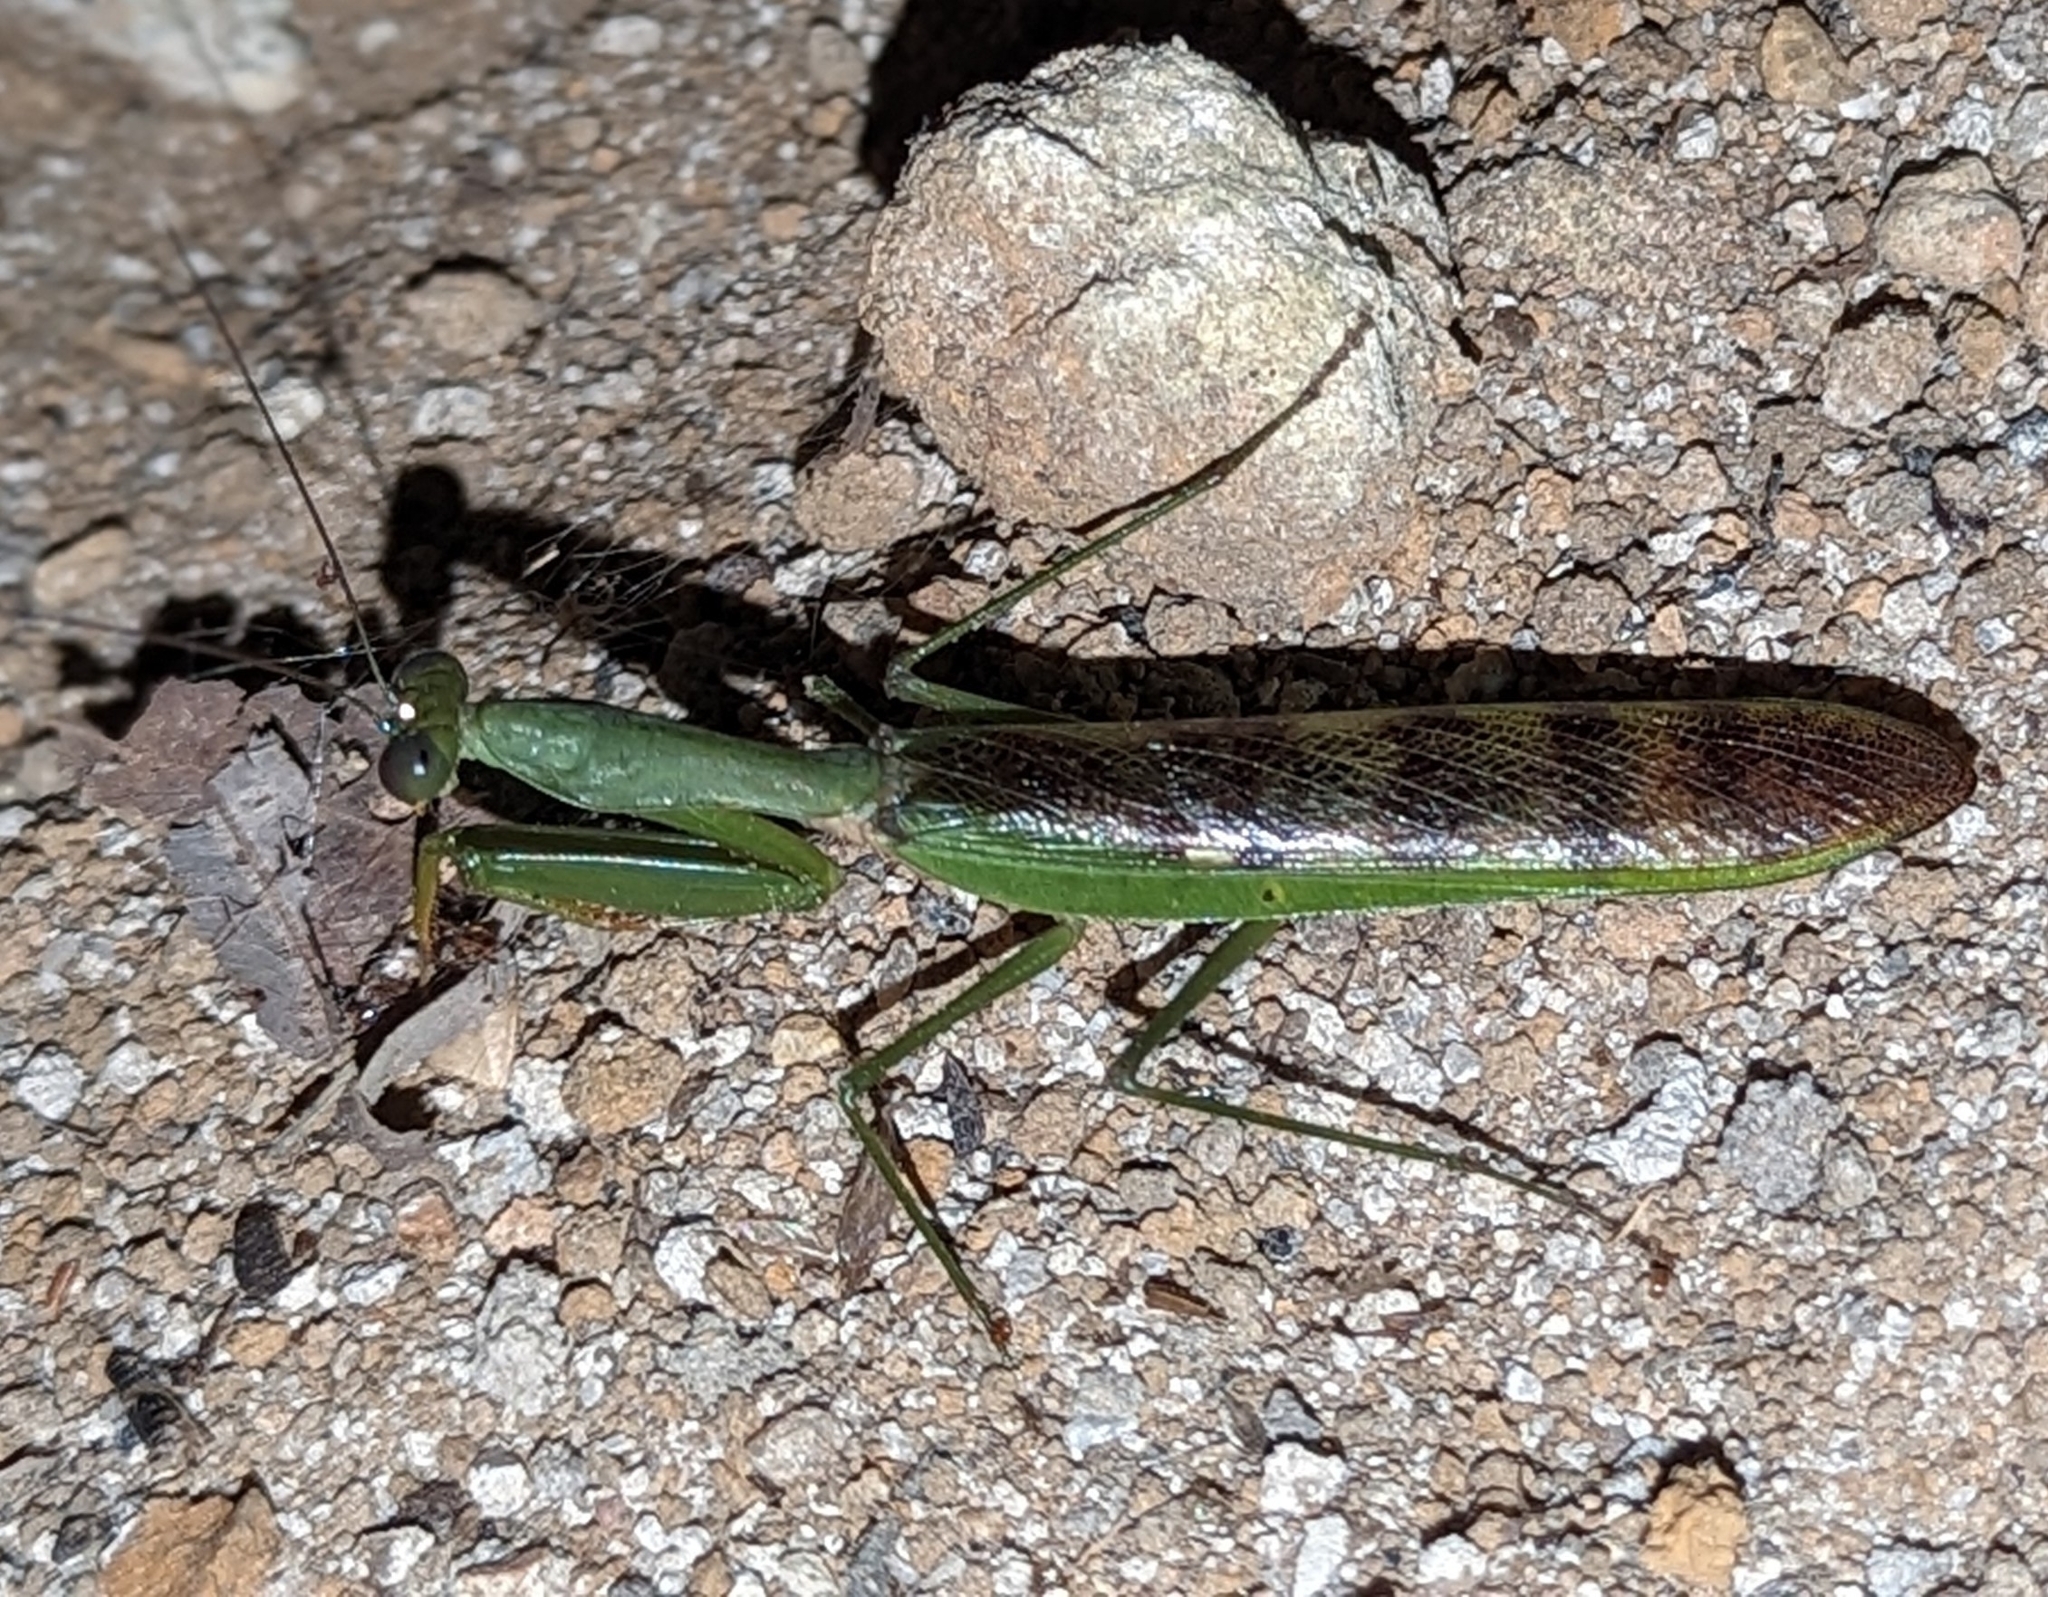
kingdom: Animalia
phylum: Arthropoda
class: Insecta
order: Mantodea
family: Mantidae
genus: Prohierodula
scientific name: Prohierodula ornatipennis
